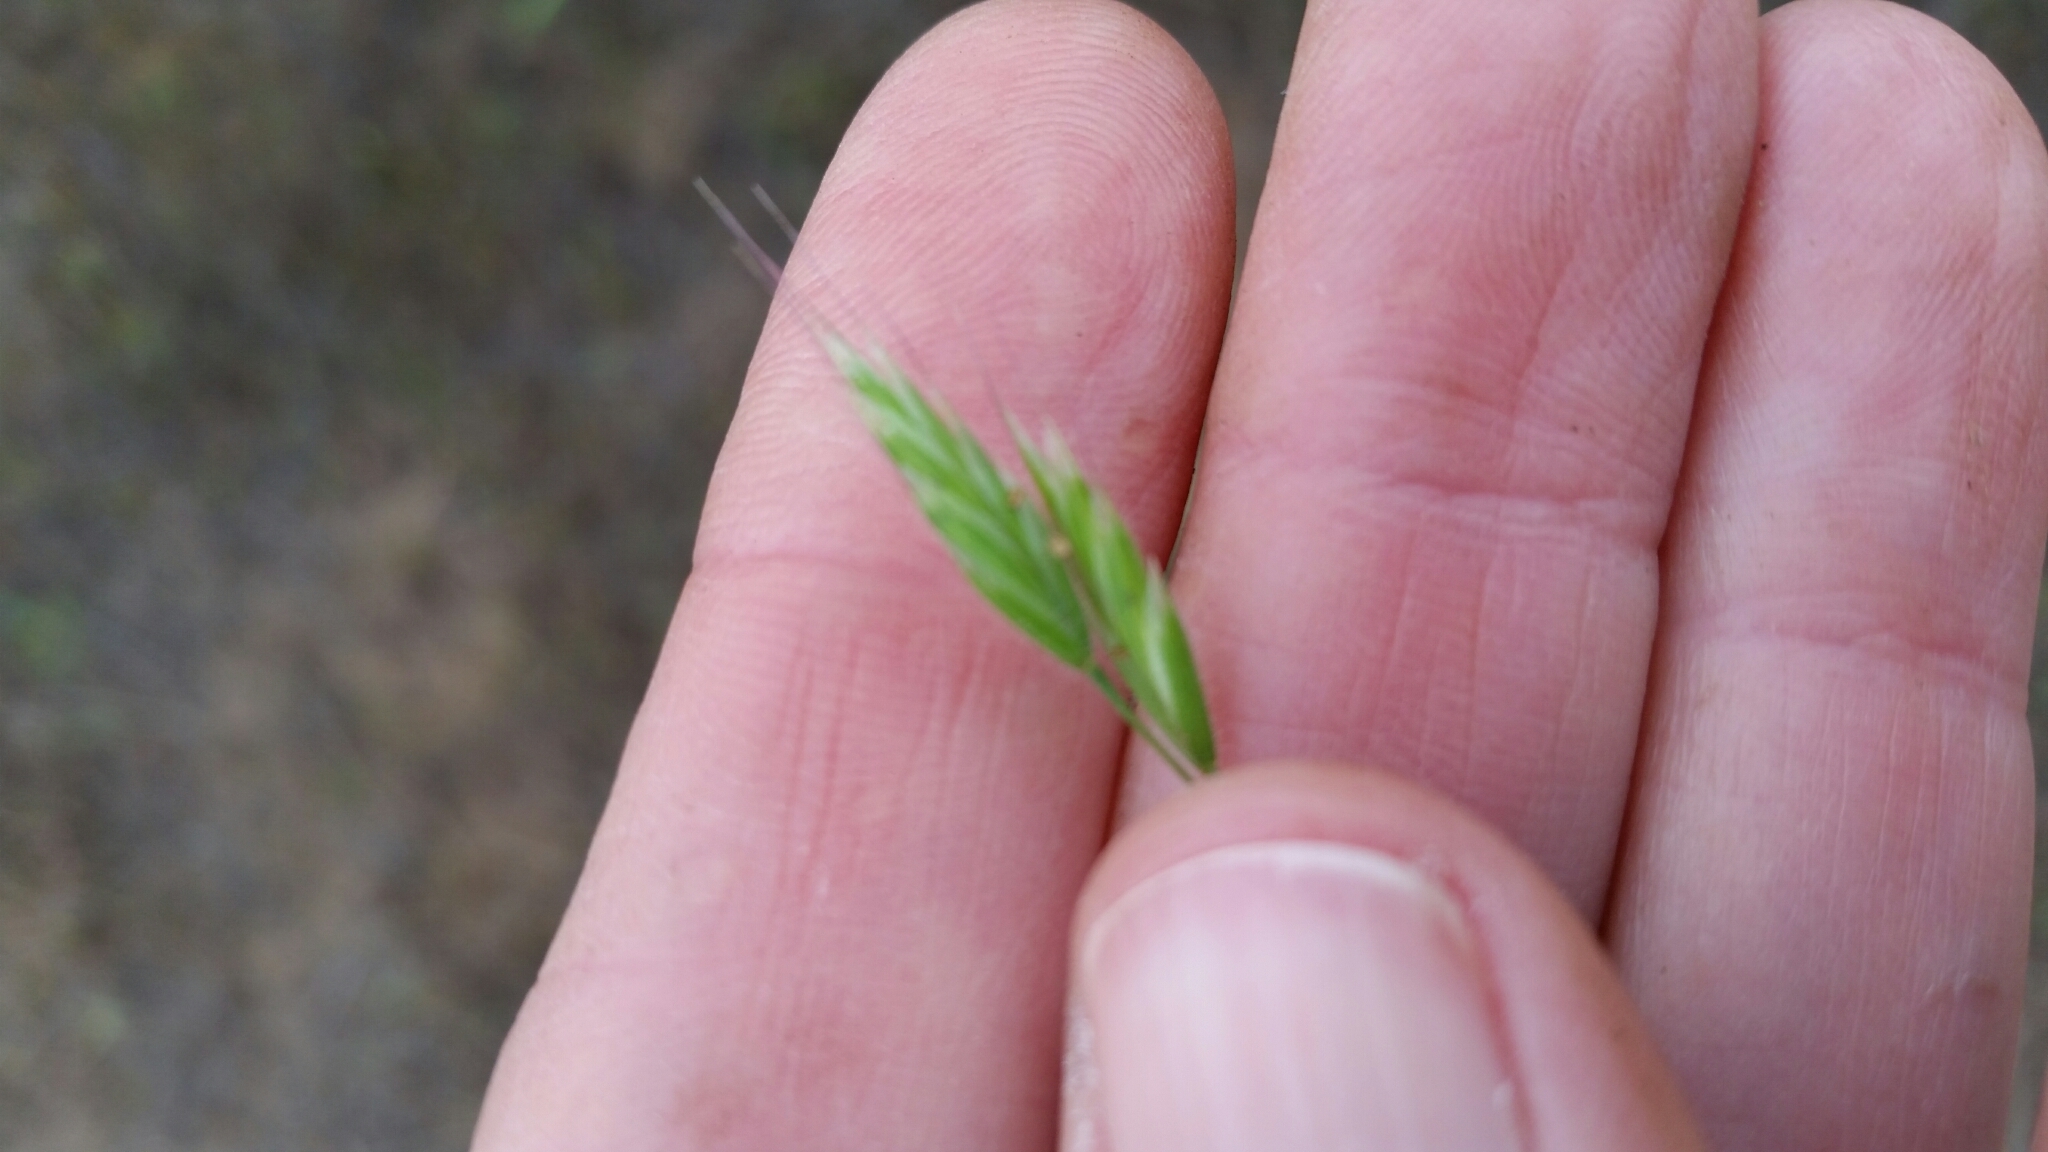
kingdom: Plantae
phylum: Tracheophyta
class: Liliopsida
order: Poales
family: Poaceae
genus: Bromus
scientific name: Bromus hordeaceus
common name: Soft brome
